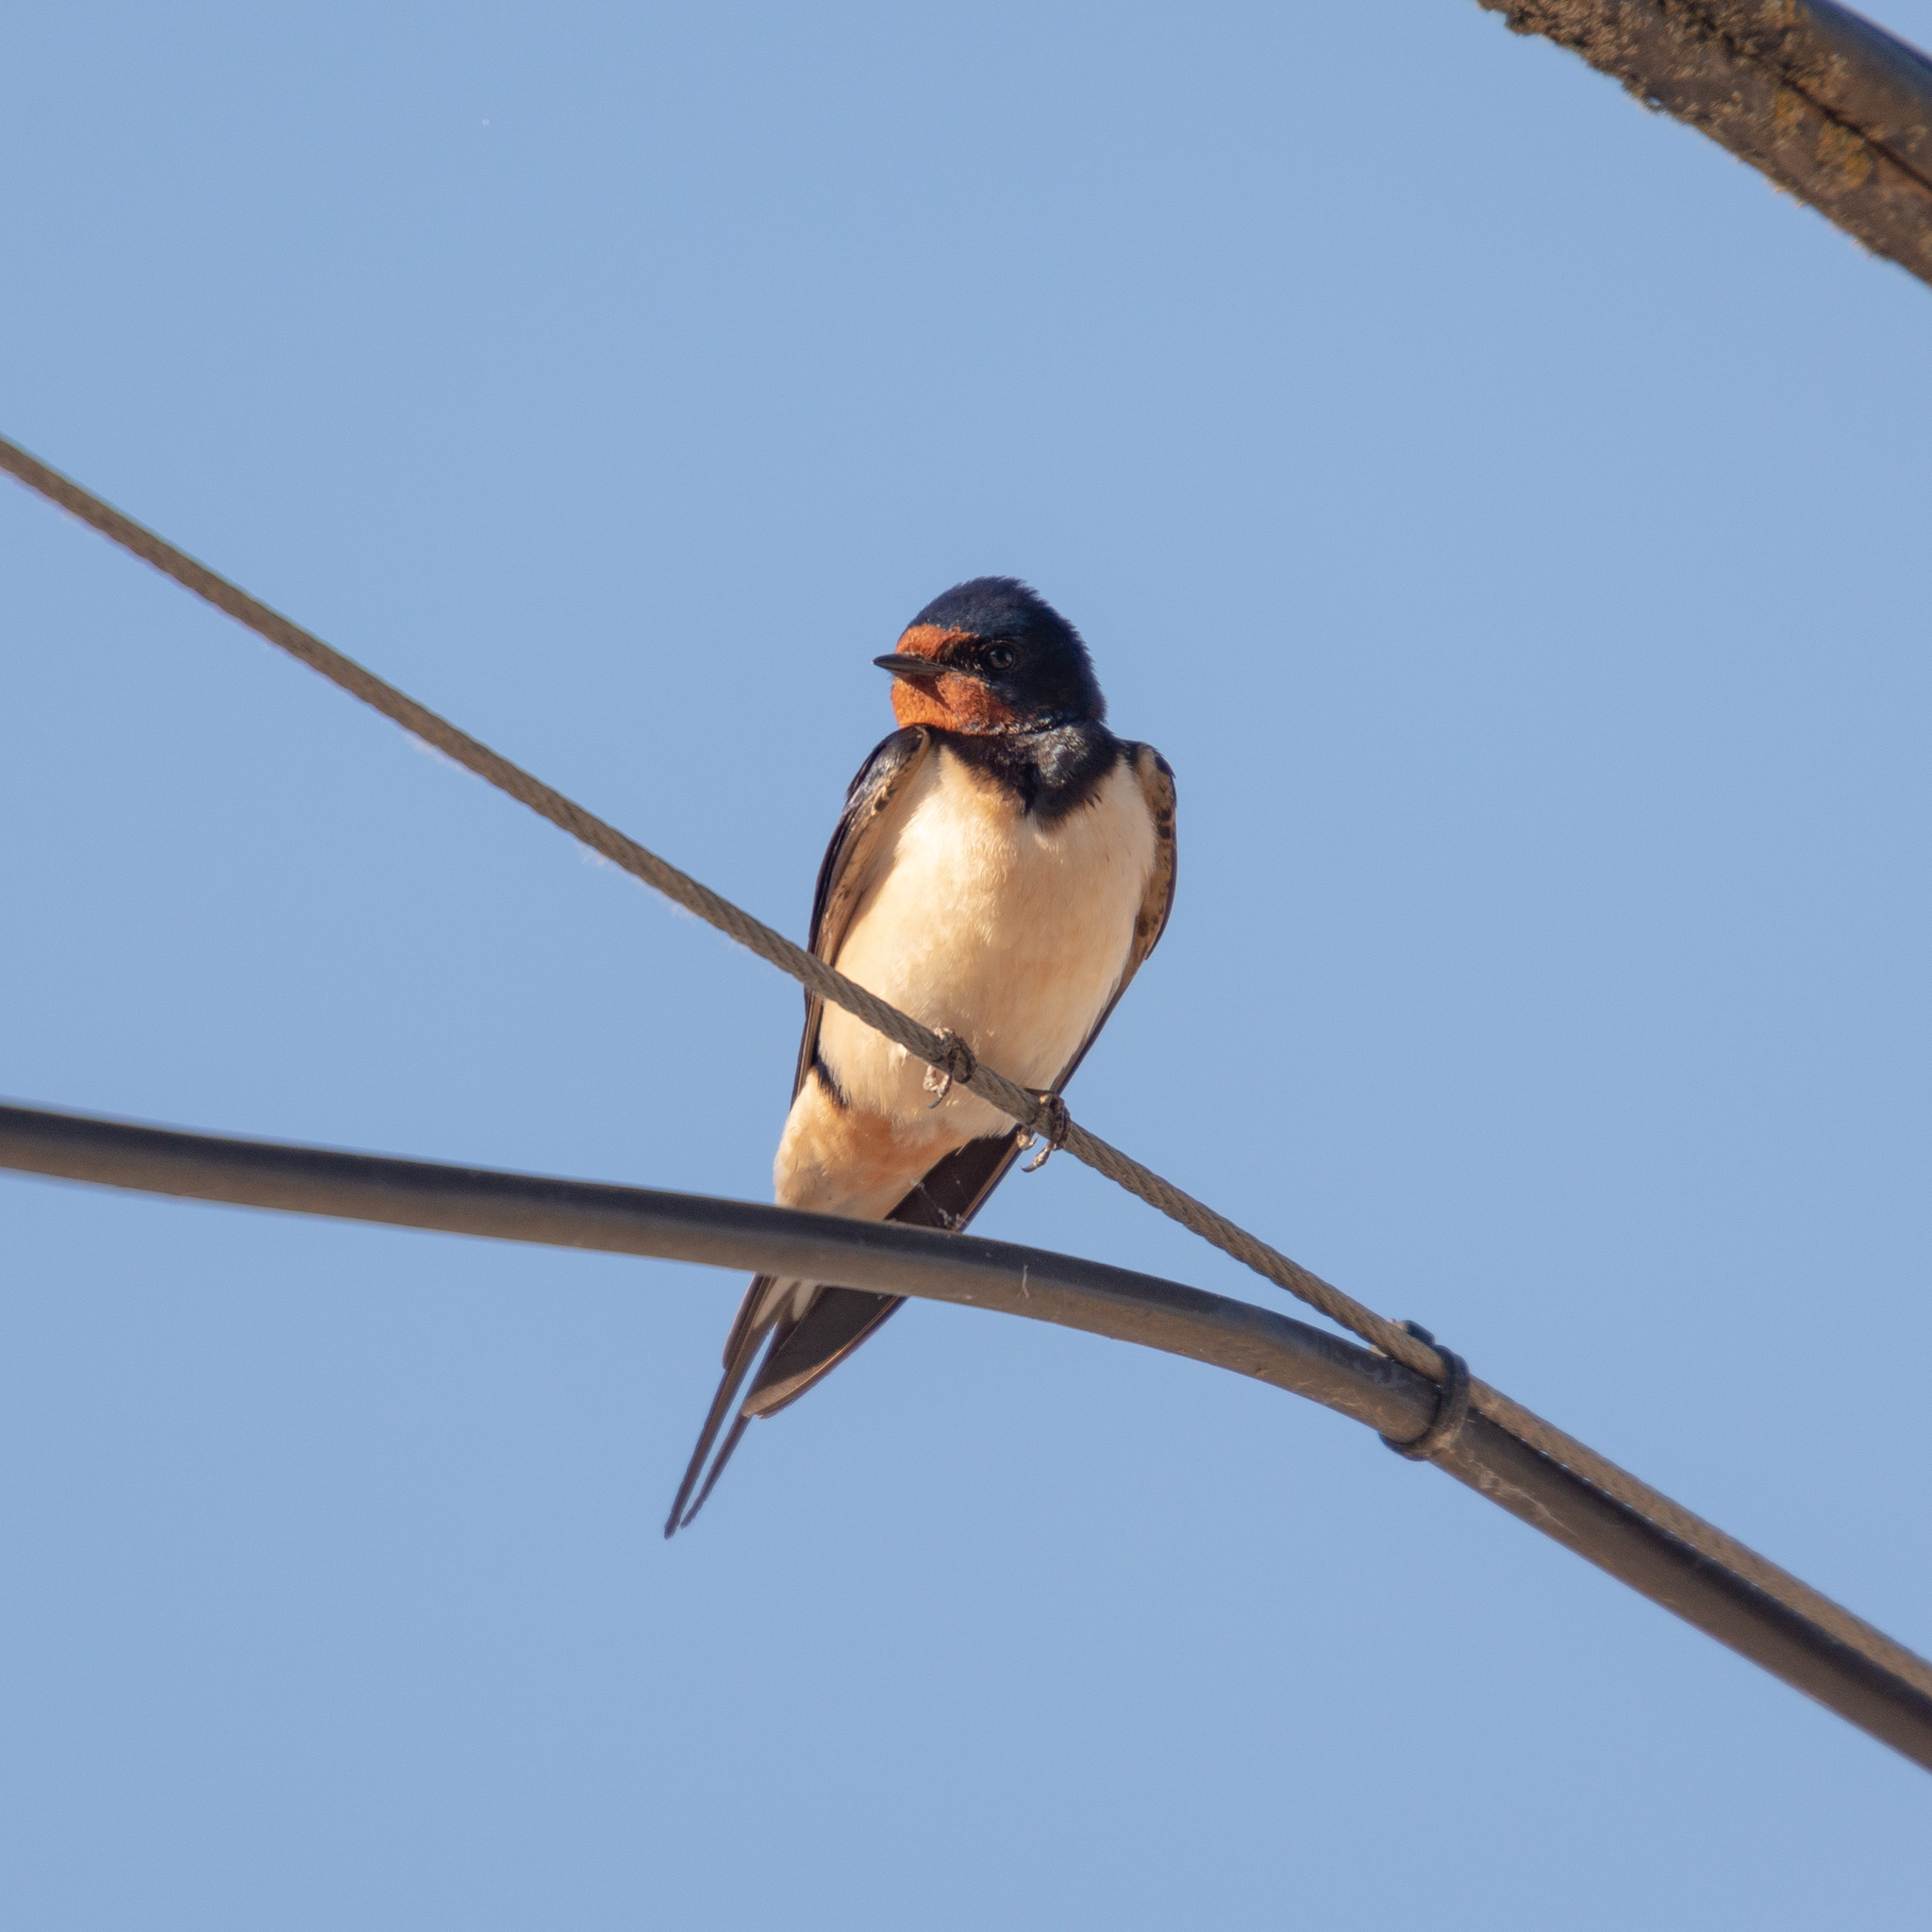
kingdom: Animalia
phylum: Chordata
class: Aves
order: Passeriformes
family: Hirundinidae
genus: Hirundo
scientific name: Hirundo rustica
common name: Barn swallow
